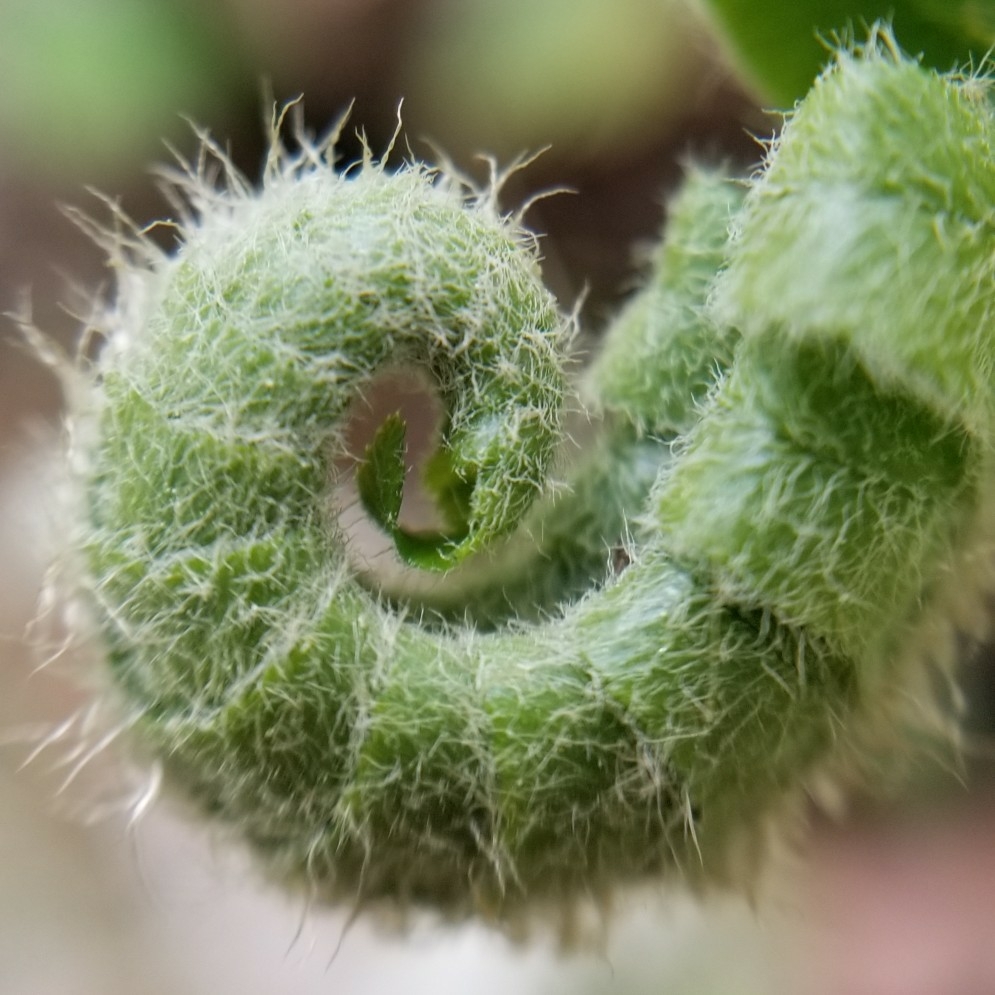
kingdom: Plantae
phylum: Tracheophyta
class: Polypodiopsida
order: Polypodiales
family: Dryopteridaceae
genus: Polystichum
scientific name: Polystichum acrostichoides
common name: Christmas fern
